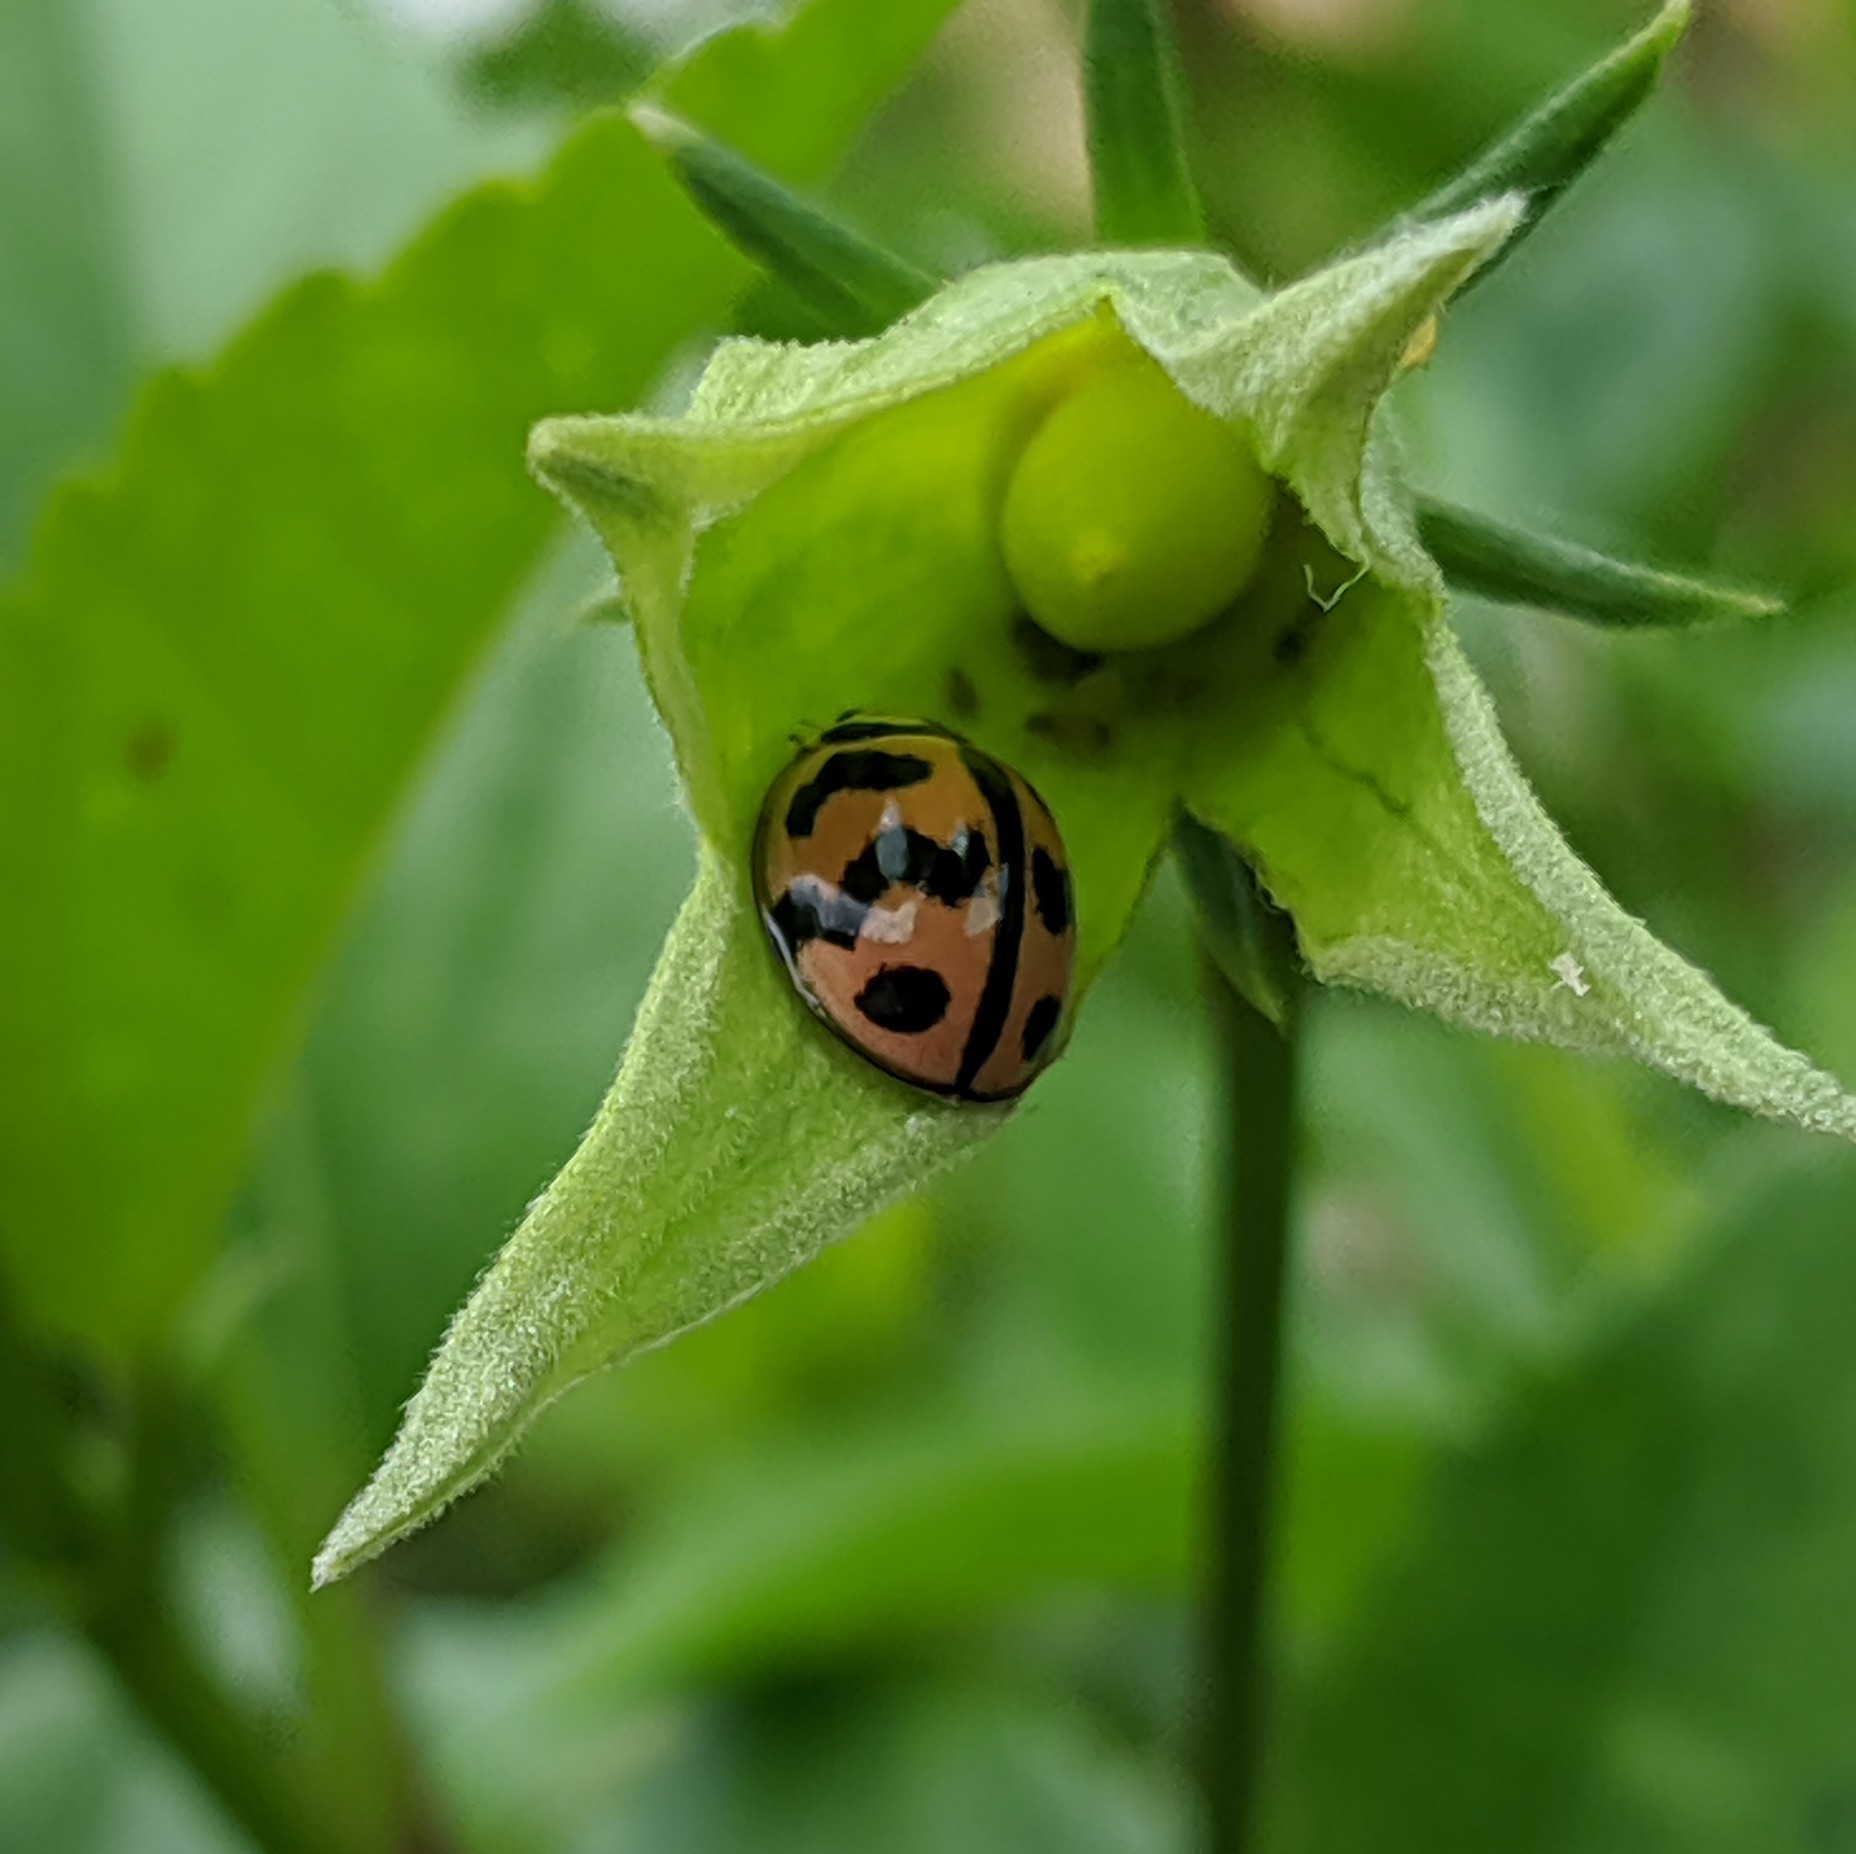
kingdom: Animalia
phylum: Arthropoda
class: Insecta
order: Coleoptera
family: Coccinellidae
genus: Cheilomenes
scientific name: Cheilomenes sexmaculata
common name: Ladybird beetle
